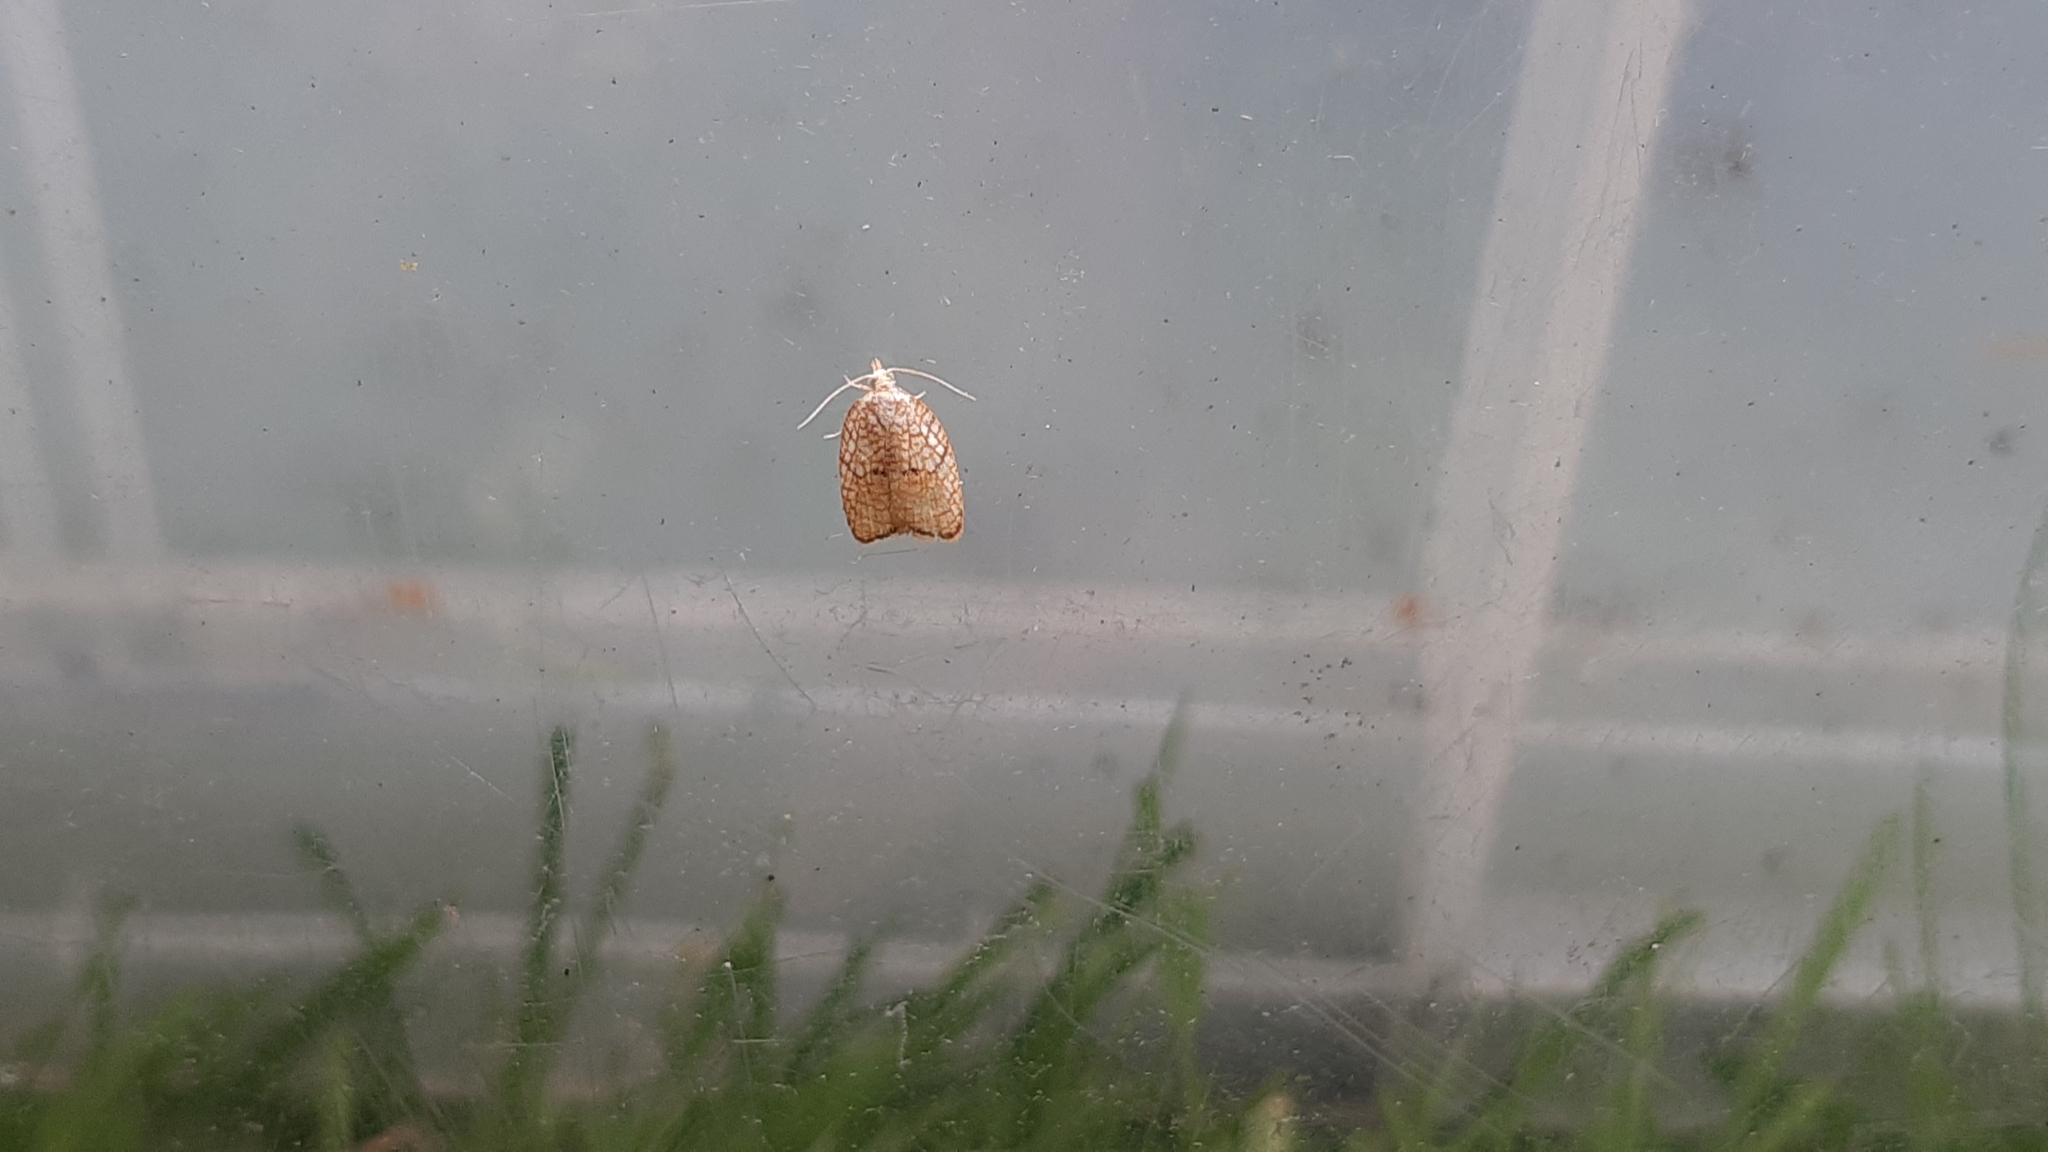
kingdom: Animalia
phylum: Arthropoda
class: Insecta
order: Lepidoptera
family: Tortricidae
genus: Acleris
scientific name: Acleris forsskaleana
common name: Maple button
